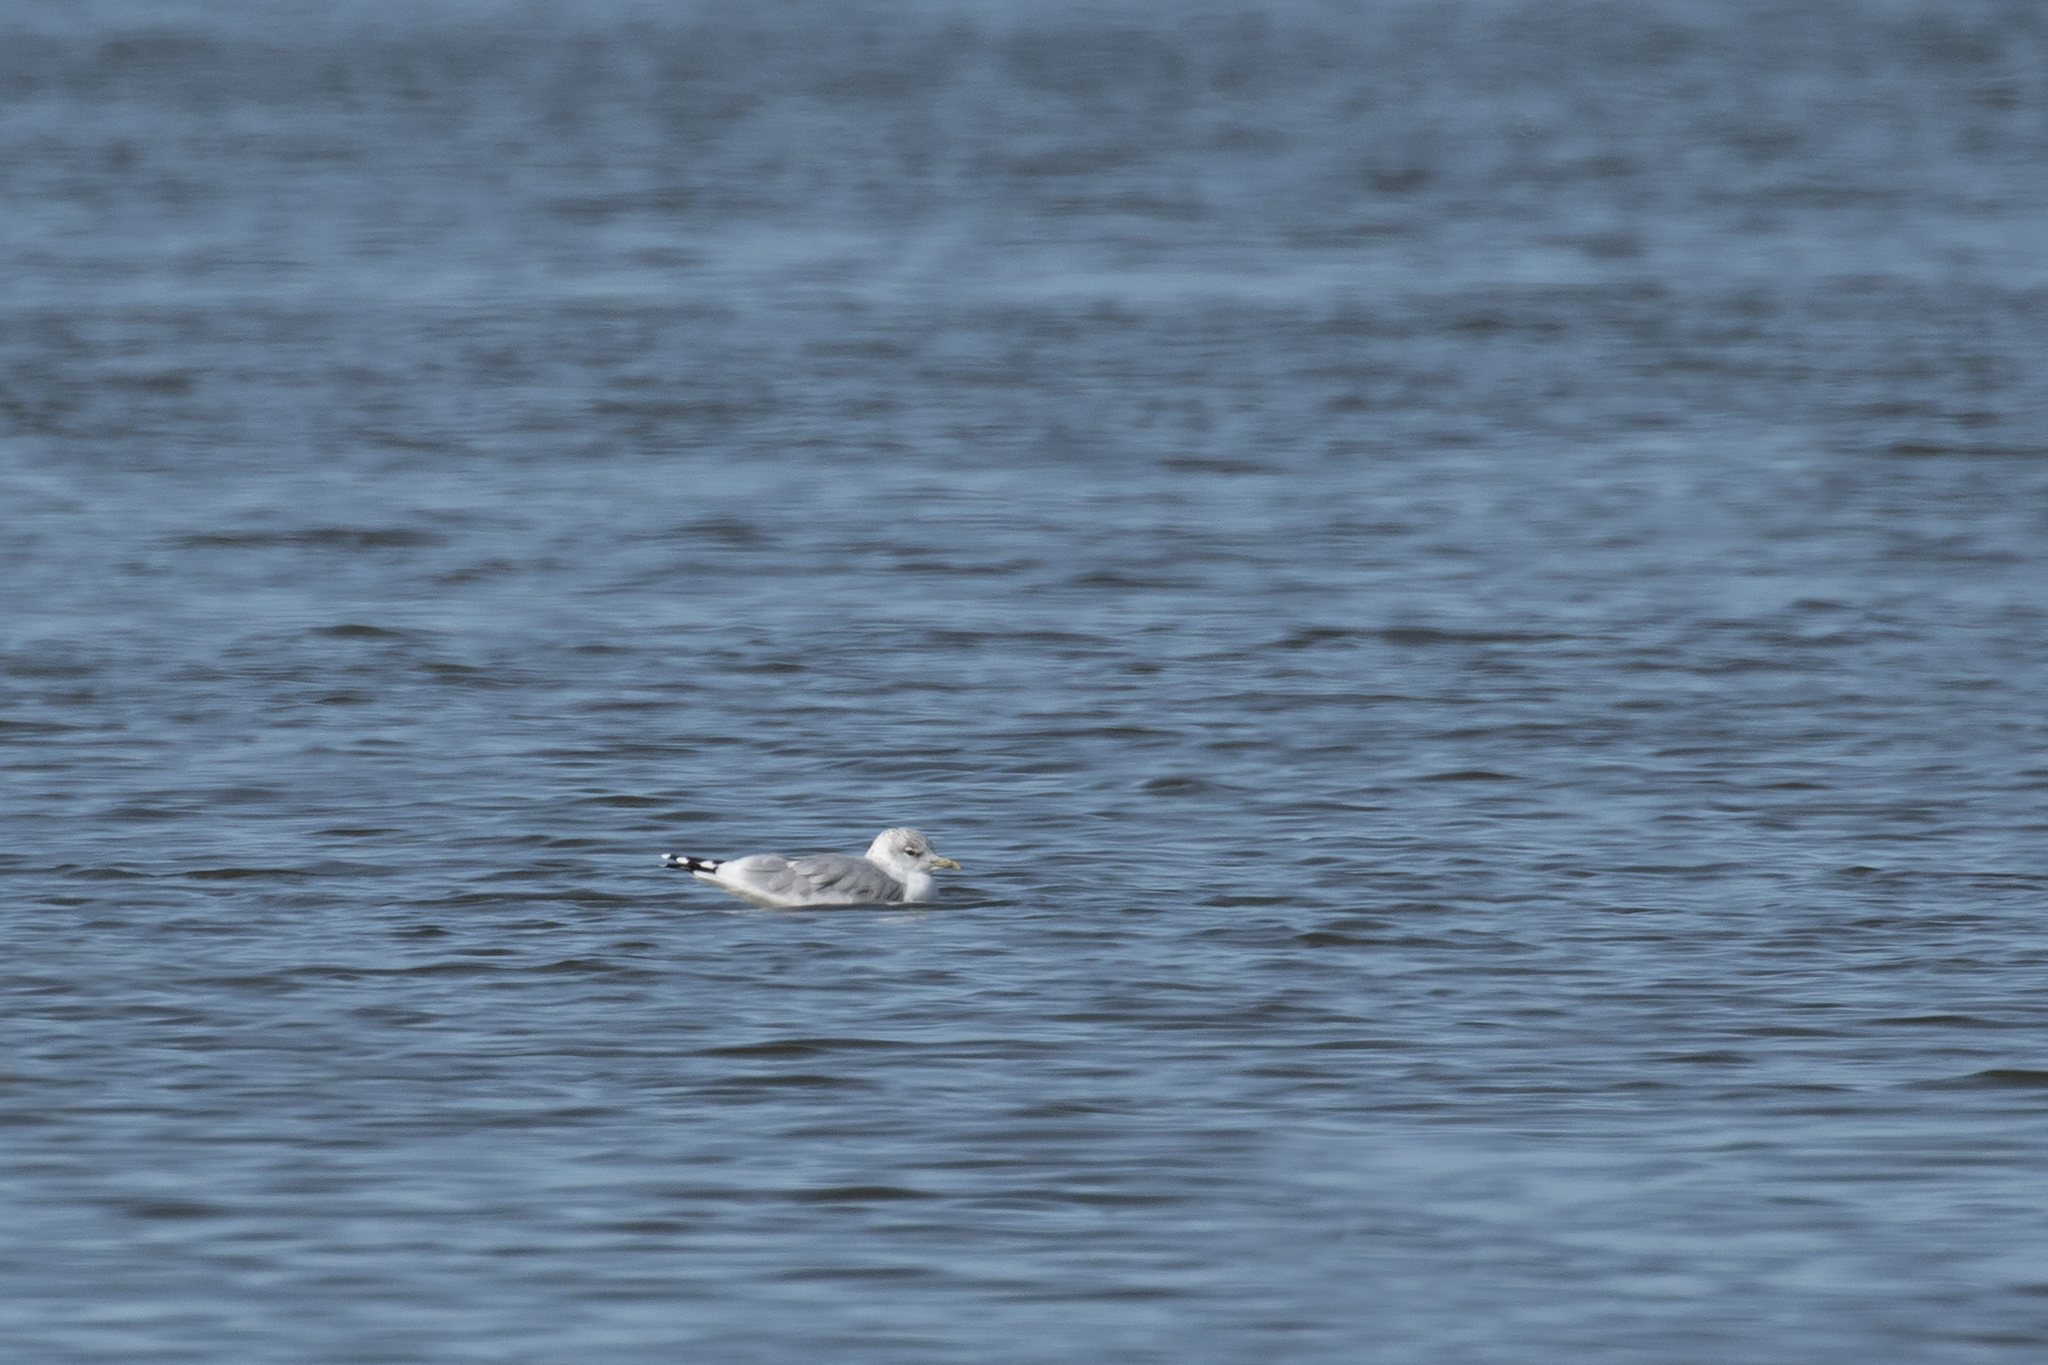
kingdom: Animalia
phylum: Chordata
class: Aves
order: Charadriiformes
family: Laridae
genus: Larus
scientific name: Larus canus
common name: Mew gull
